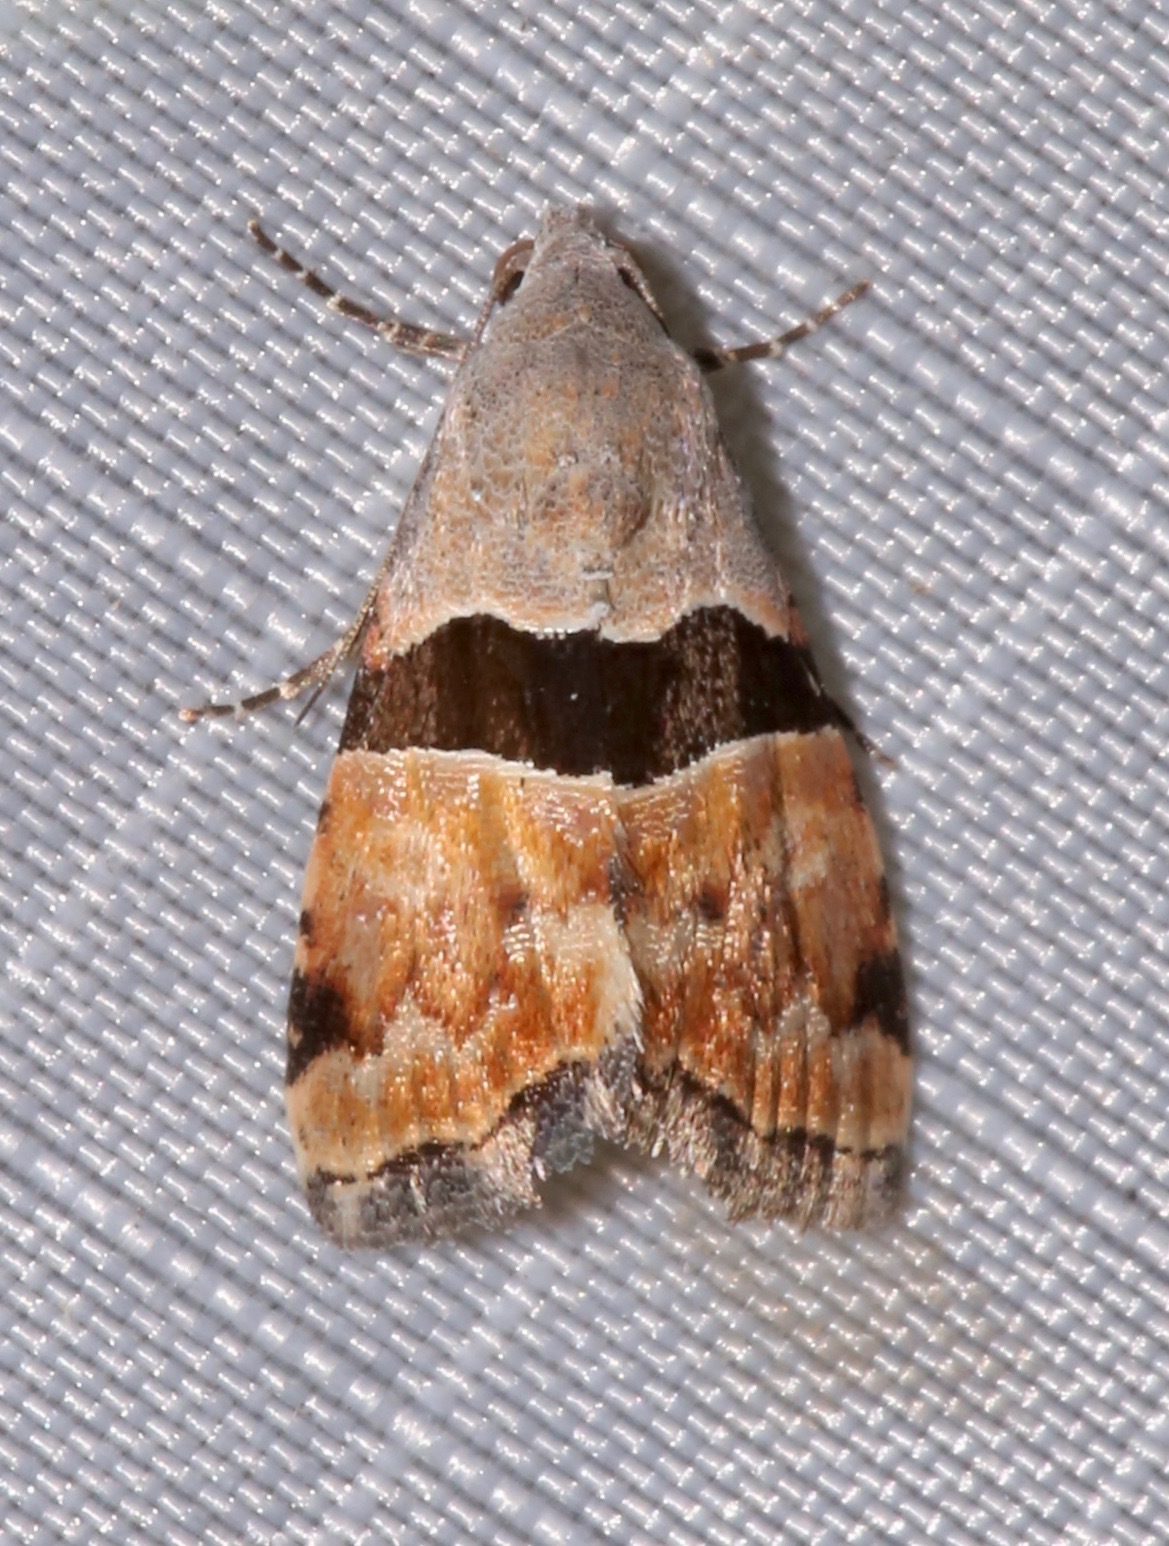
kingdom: Animalia
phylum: Arthropoda
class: Insecta
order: Lepidoptera
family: Noctuidae
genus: Cobubatha
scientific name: Cobubatha lixiva
